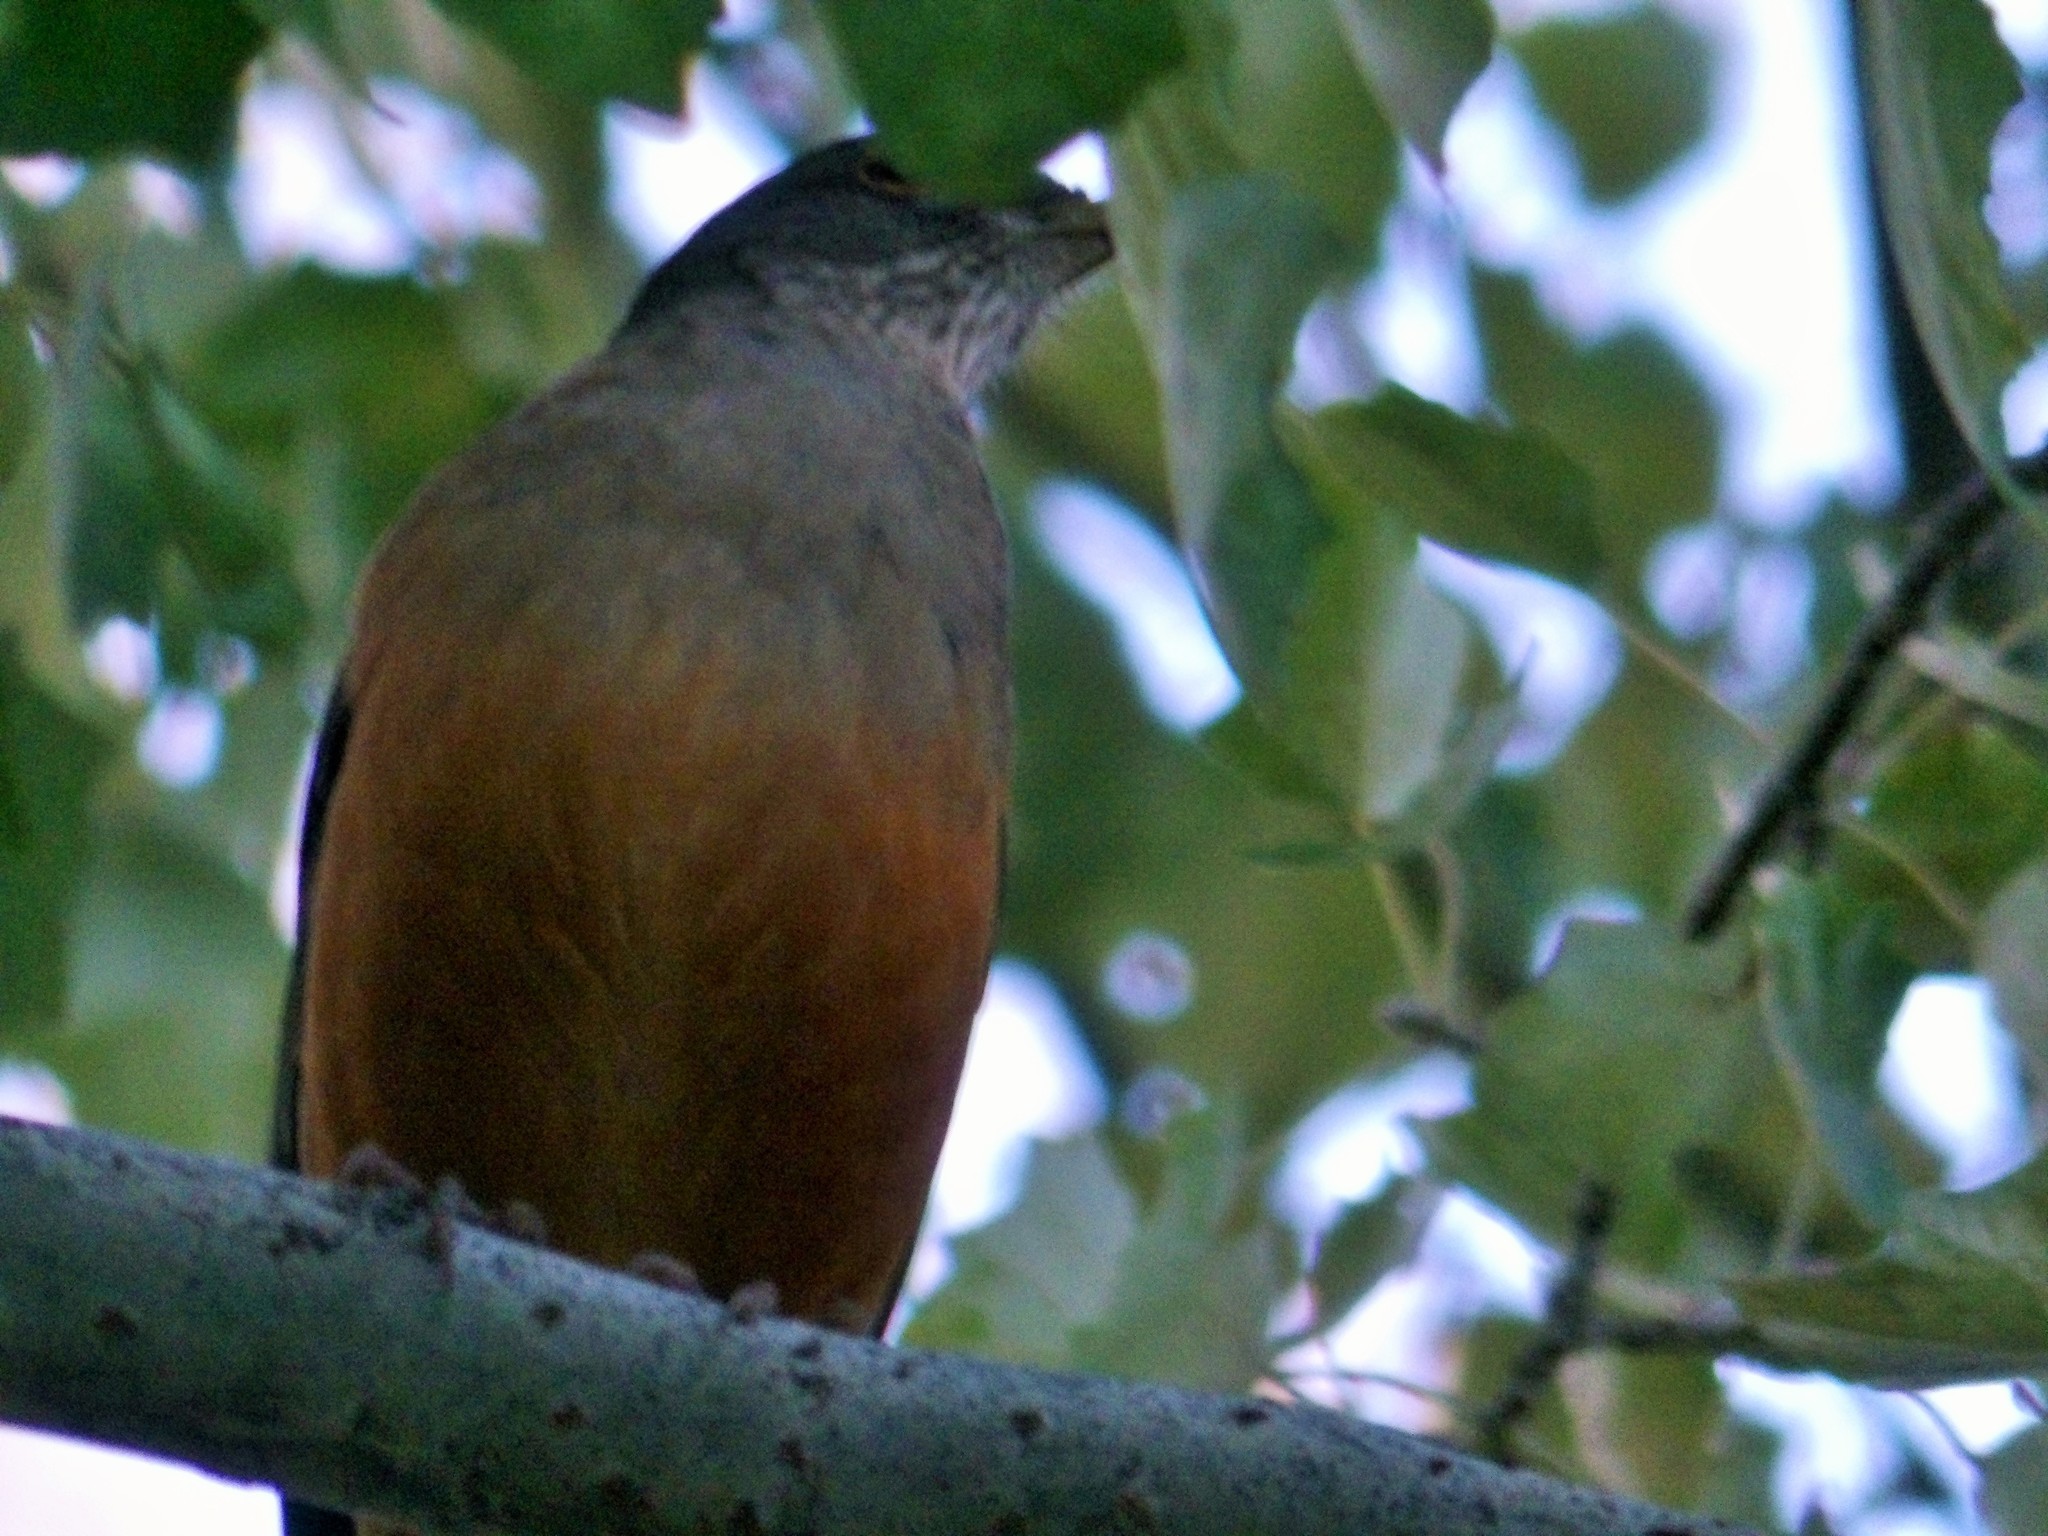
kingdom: Animalia
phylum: Chordata
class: Aves
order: Passeriformes
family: Turdidae
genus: Turdus
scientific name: Turdus rufiventris
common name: Rufous-bellied thrush
